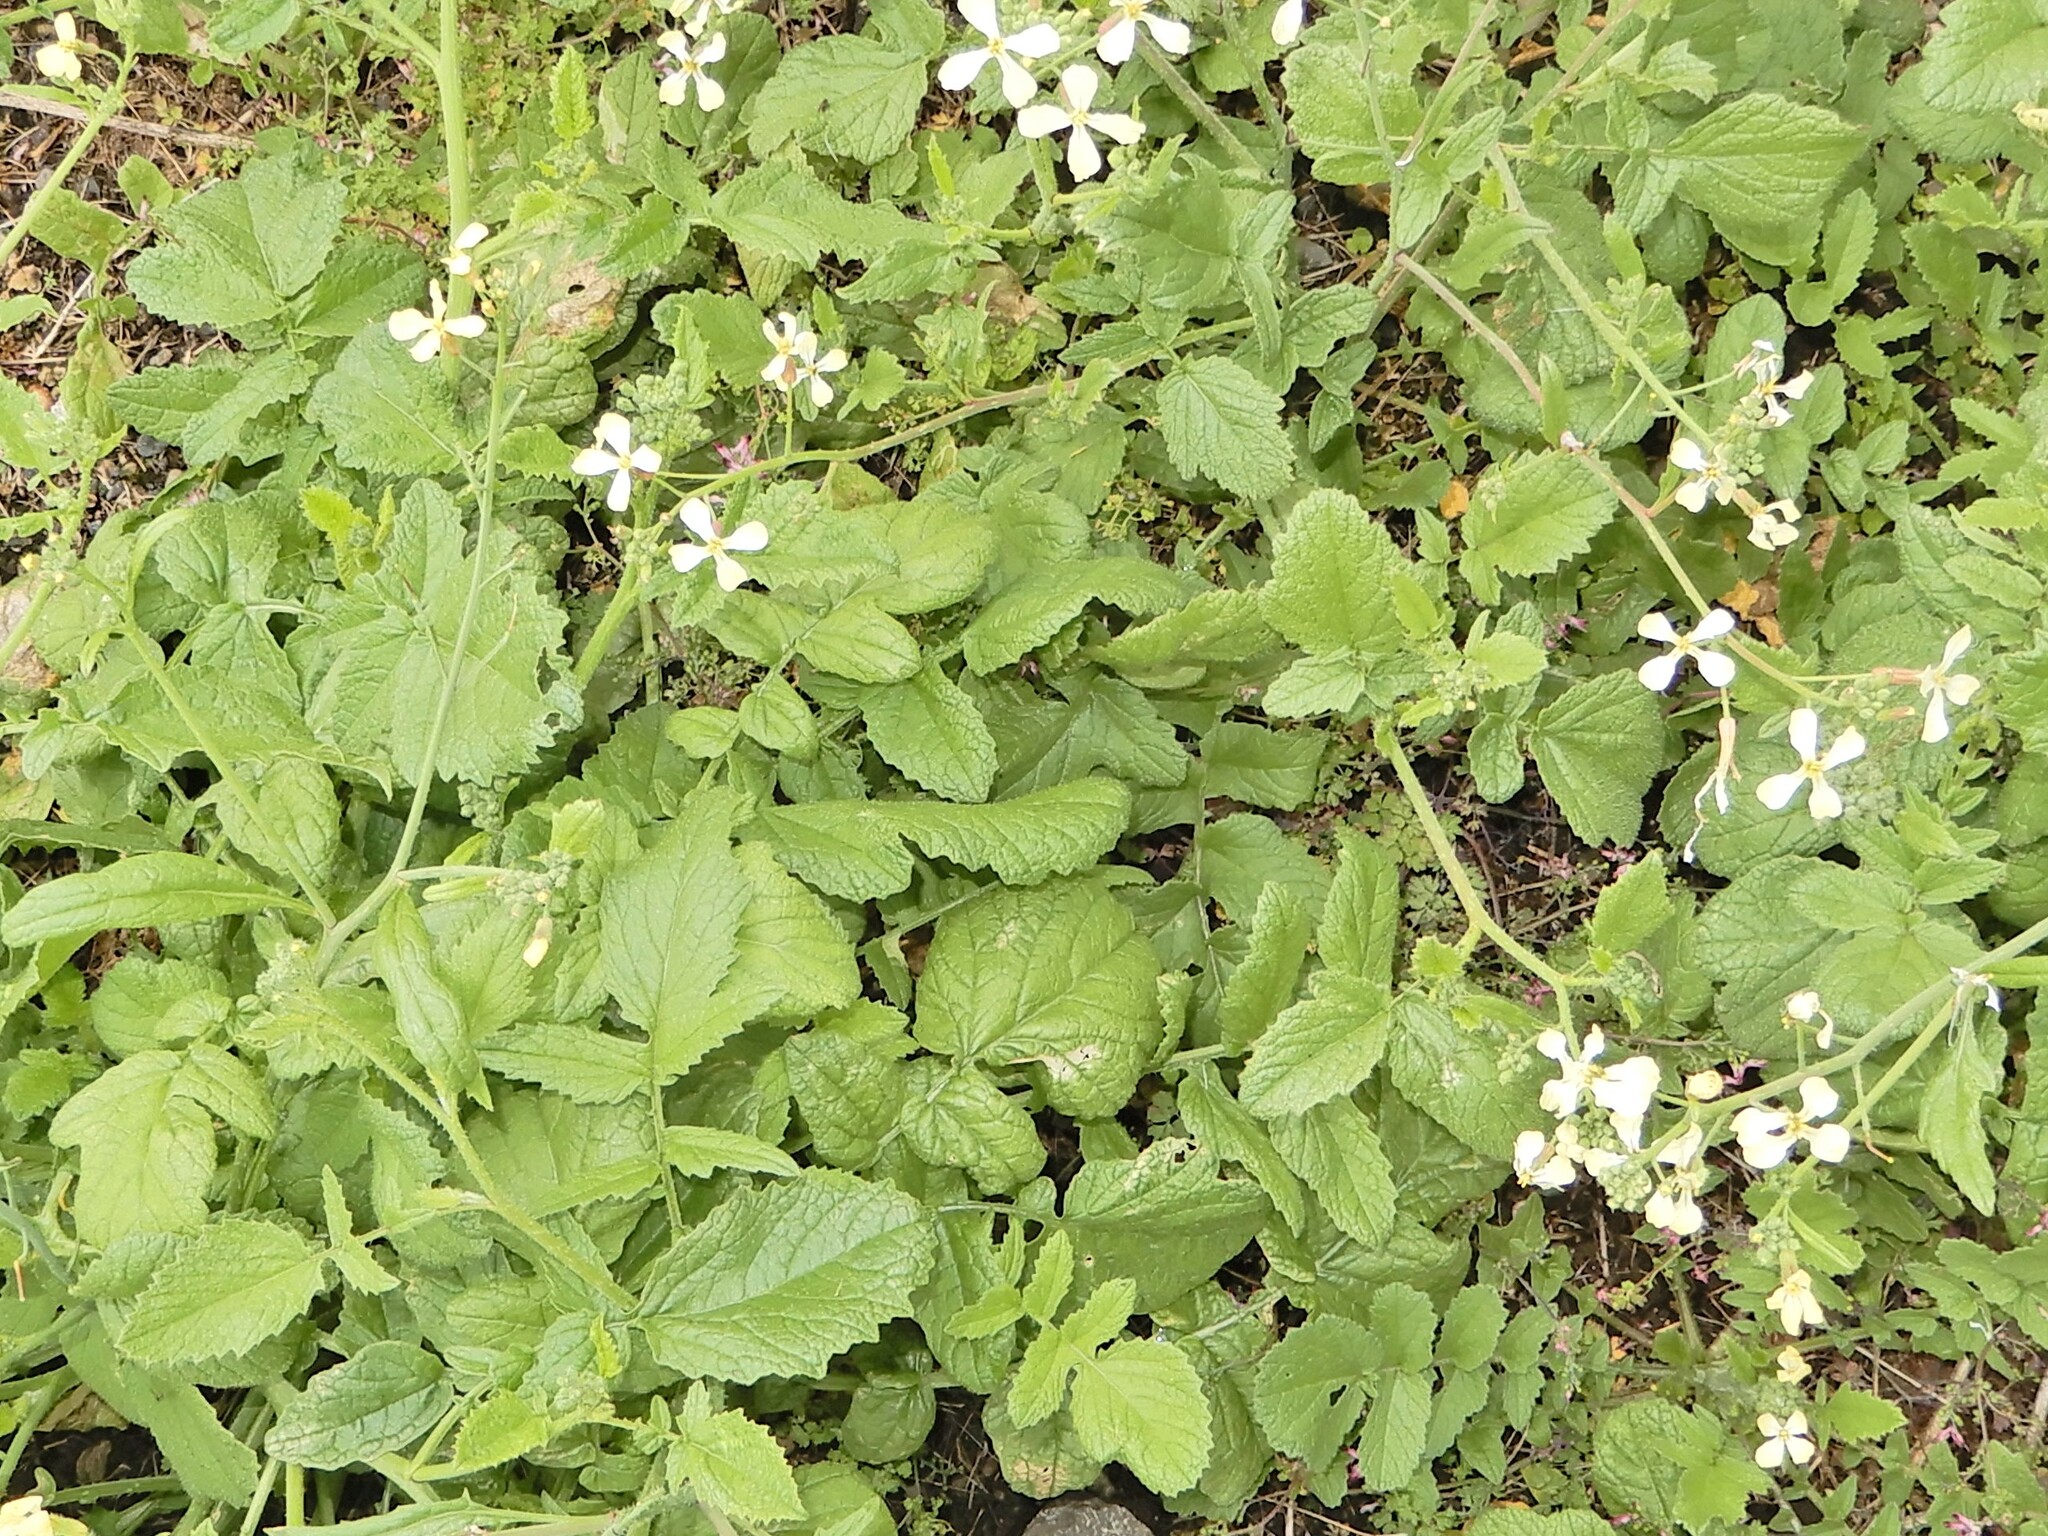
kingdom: Plantae
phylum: Tracheophyta
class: Magnoliopsida
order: Brassicales
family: Brassicaceae
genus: Raphanus
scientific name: Raphanus raphanistrum
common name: Wild radish
